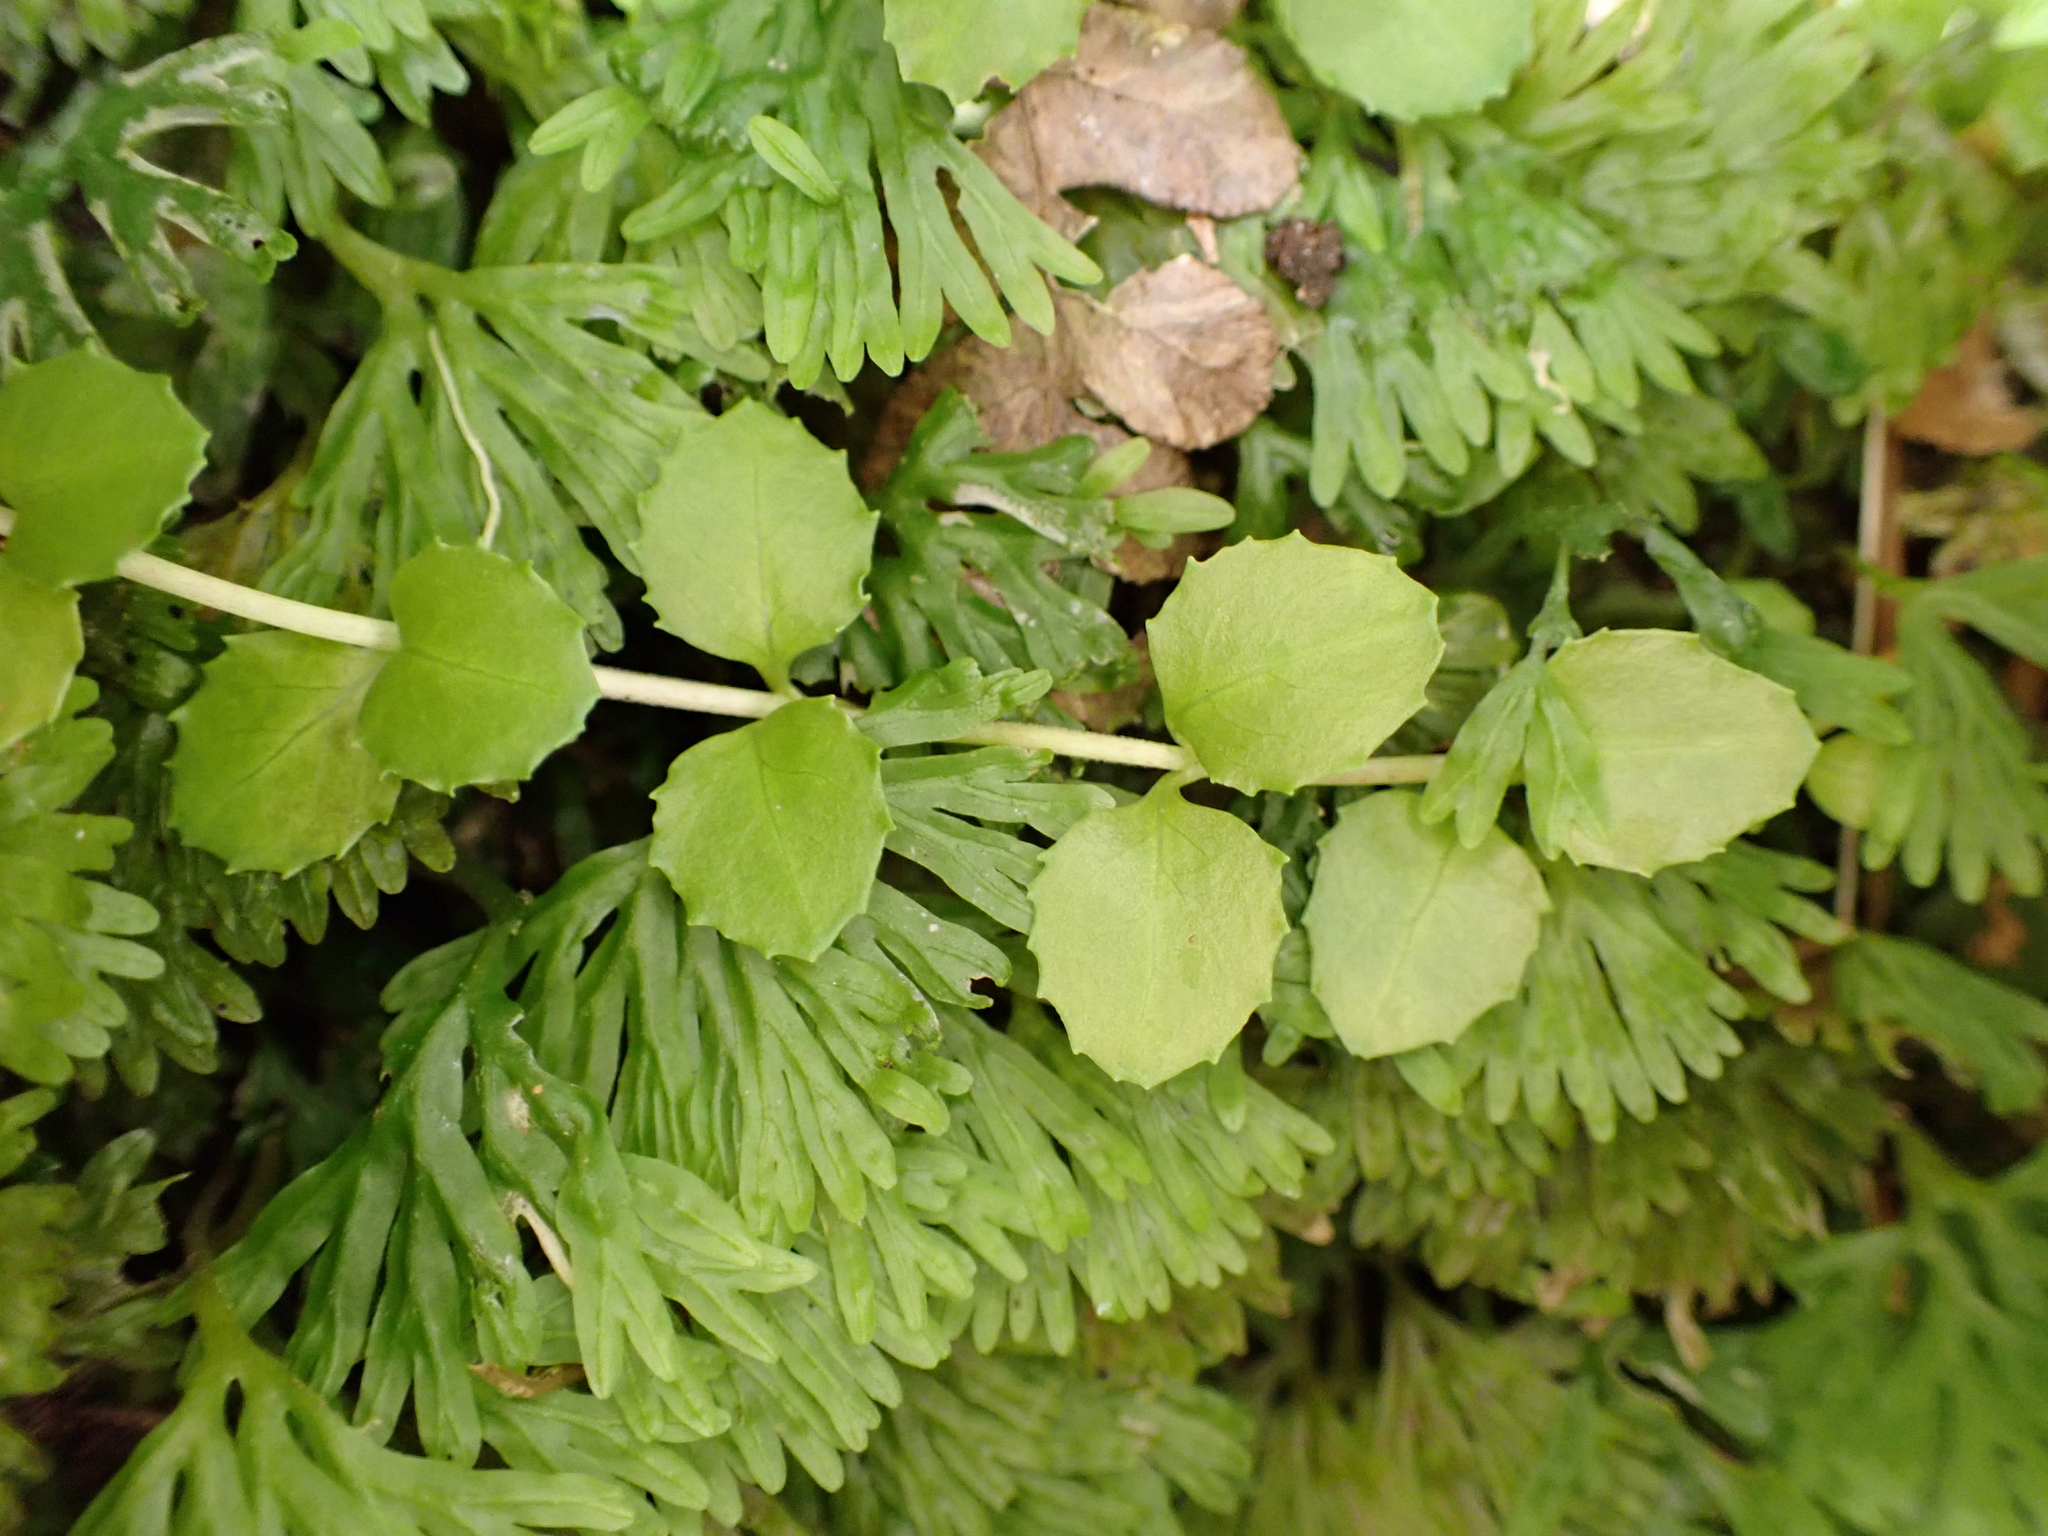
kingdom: Plantae
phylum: Tracheophyta
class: Magnoliopsida
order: Myrtales
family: Onagraceae
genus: Epilobium
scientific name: Epilobium pedunculare
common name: Rockery willowherb
